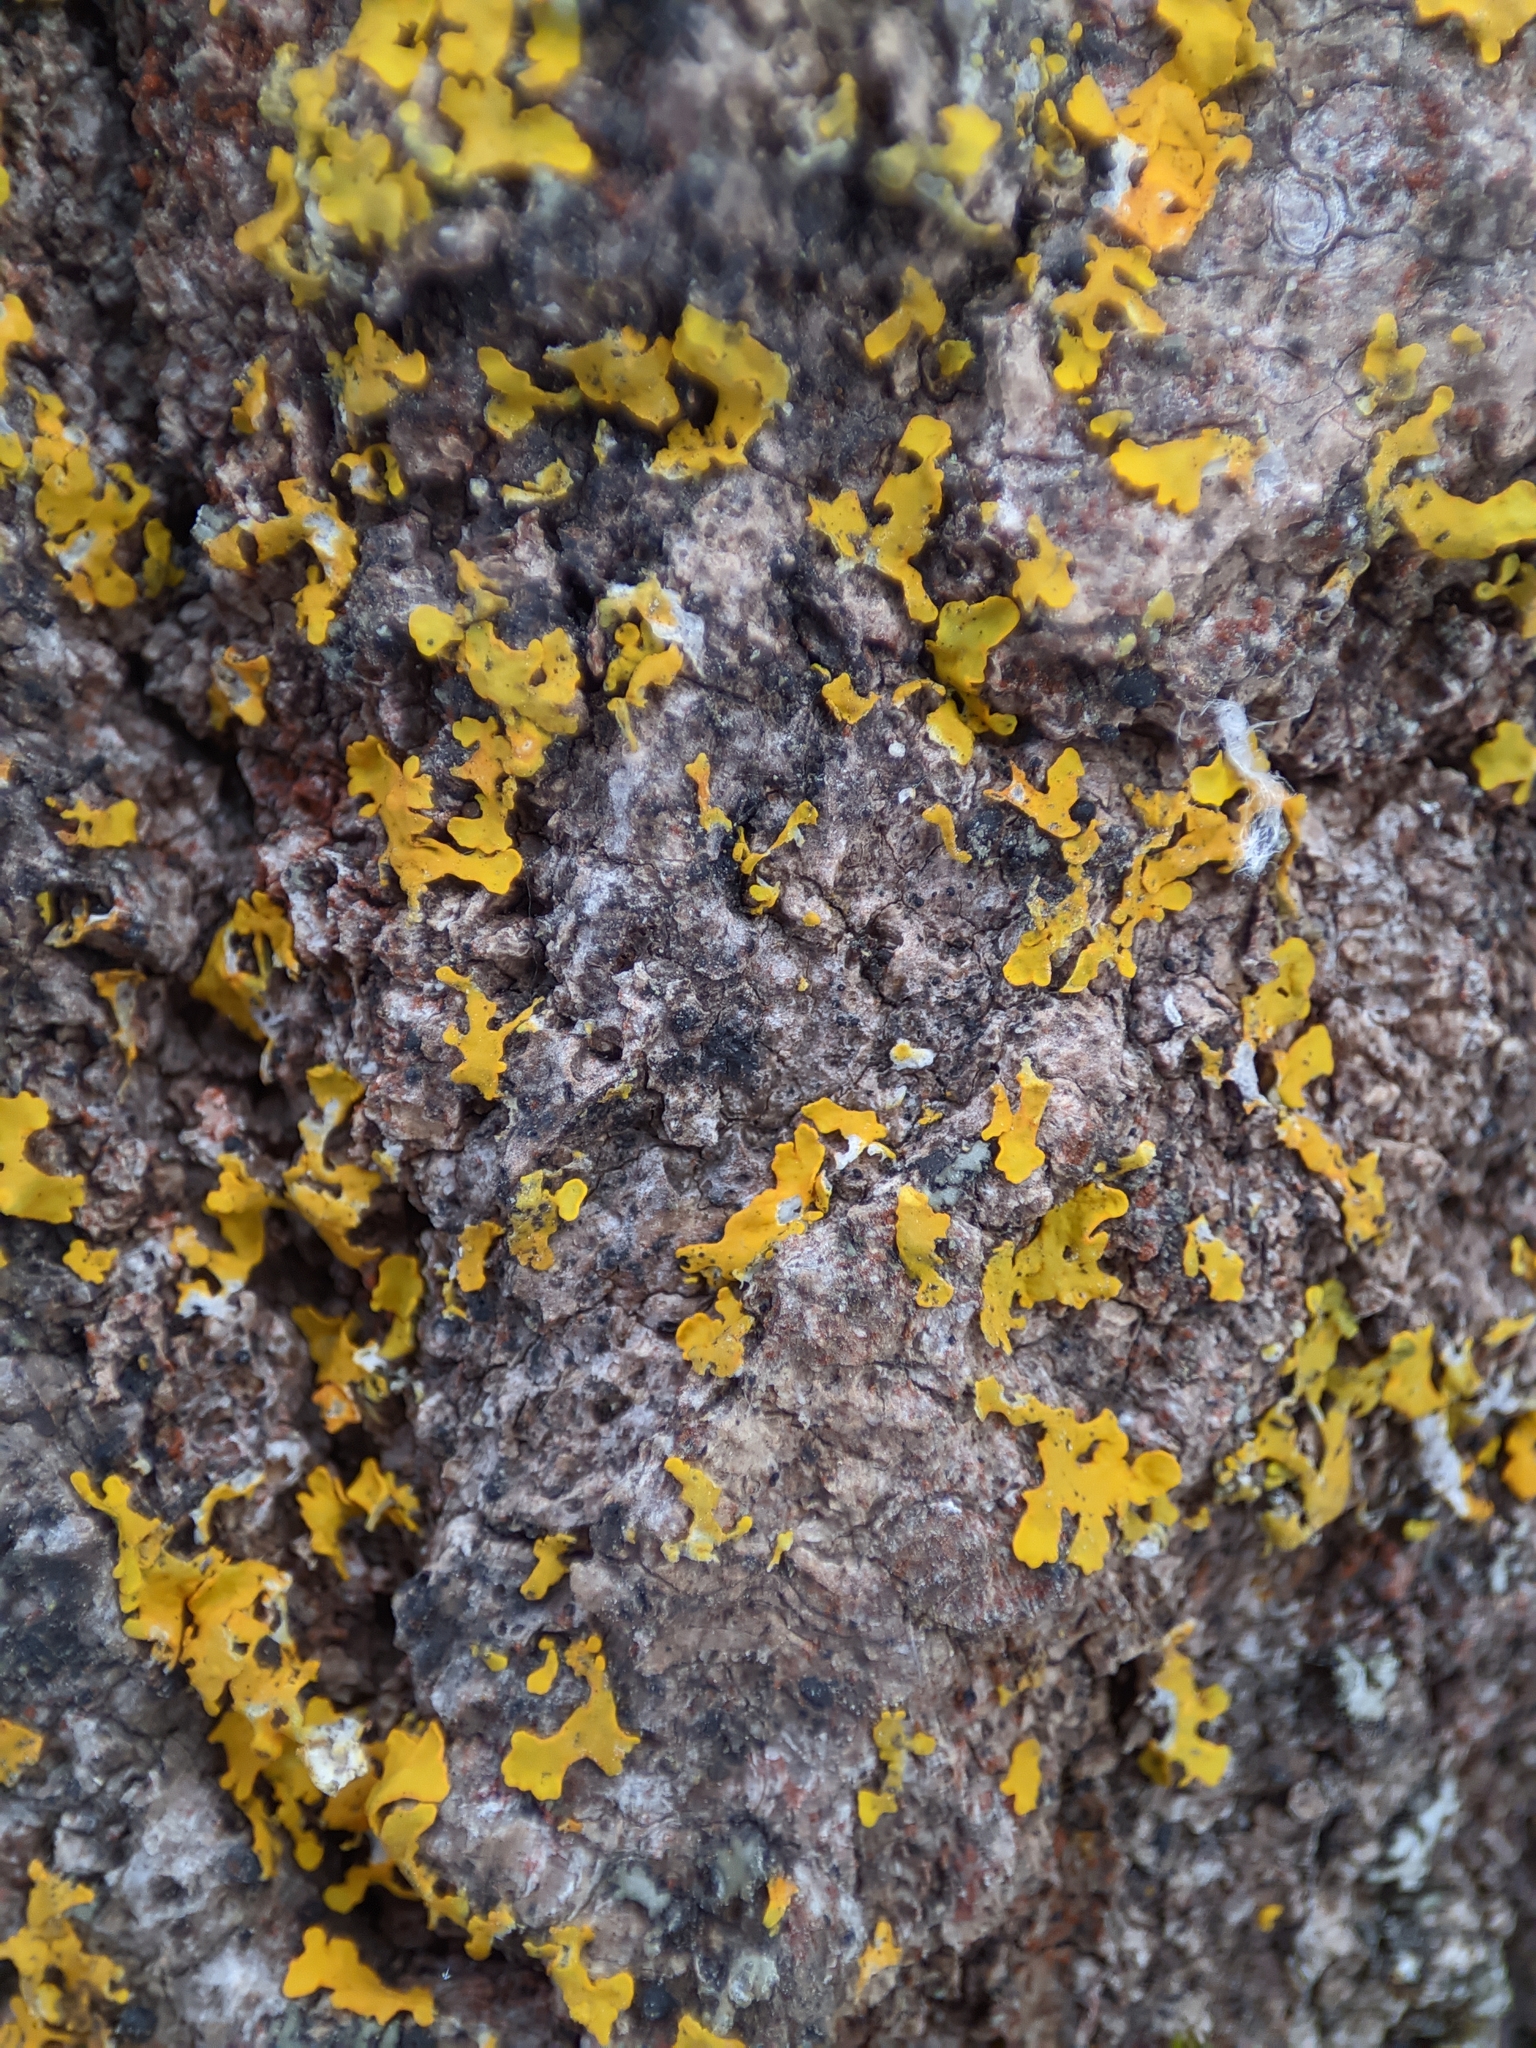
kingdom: Fungi
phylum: Ascomycota
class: Lecanoromycetes
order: Teloschistales
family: Teloschistaceae
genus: Xanthoria
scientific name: Xanthoria parietina
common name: Common orange lichen
